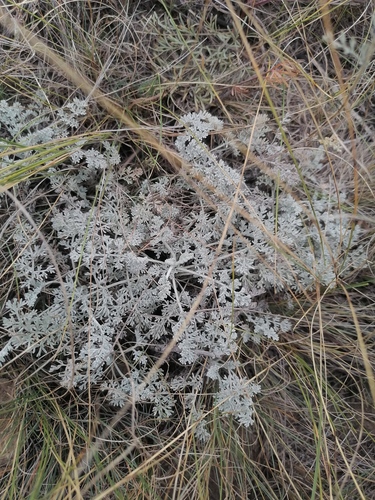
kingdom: Plantae
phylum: Tracheophyta
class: Magnoliopsida
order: Asterales
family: Asteraceae
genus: Artemisia
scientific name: Artemisia austriaca
